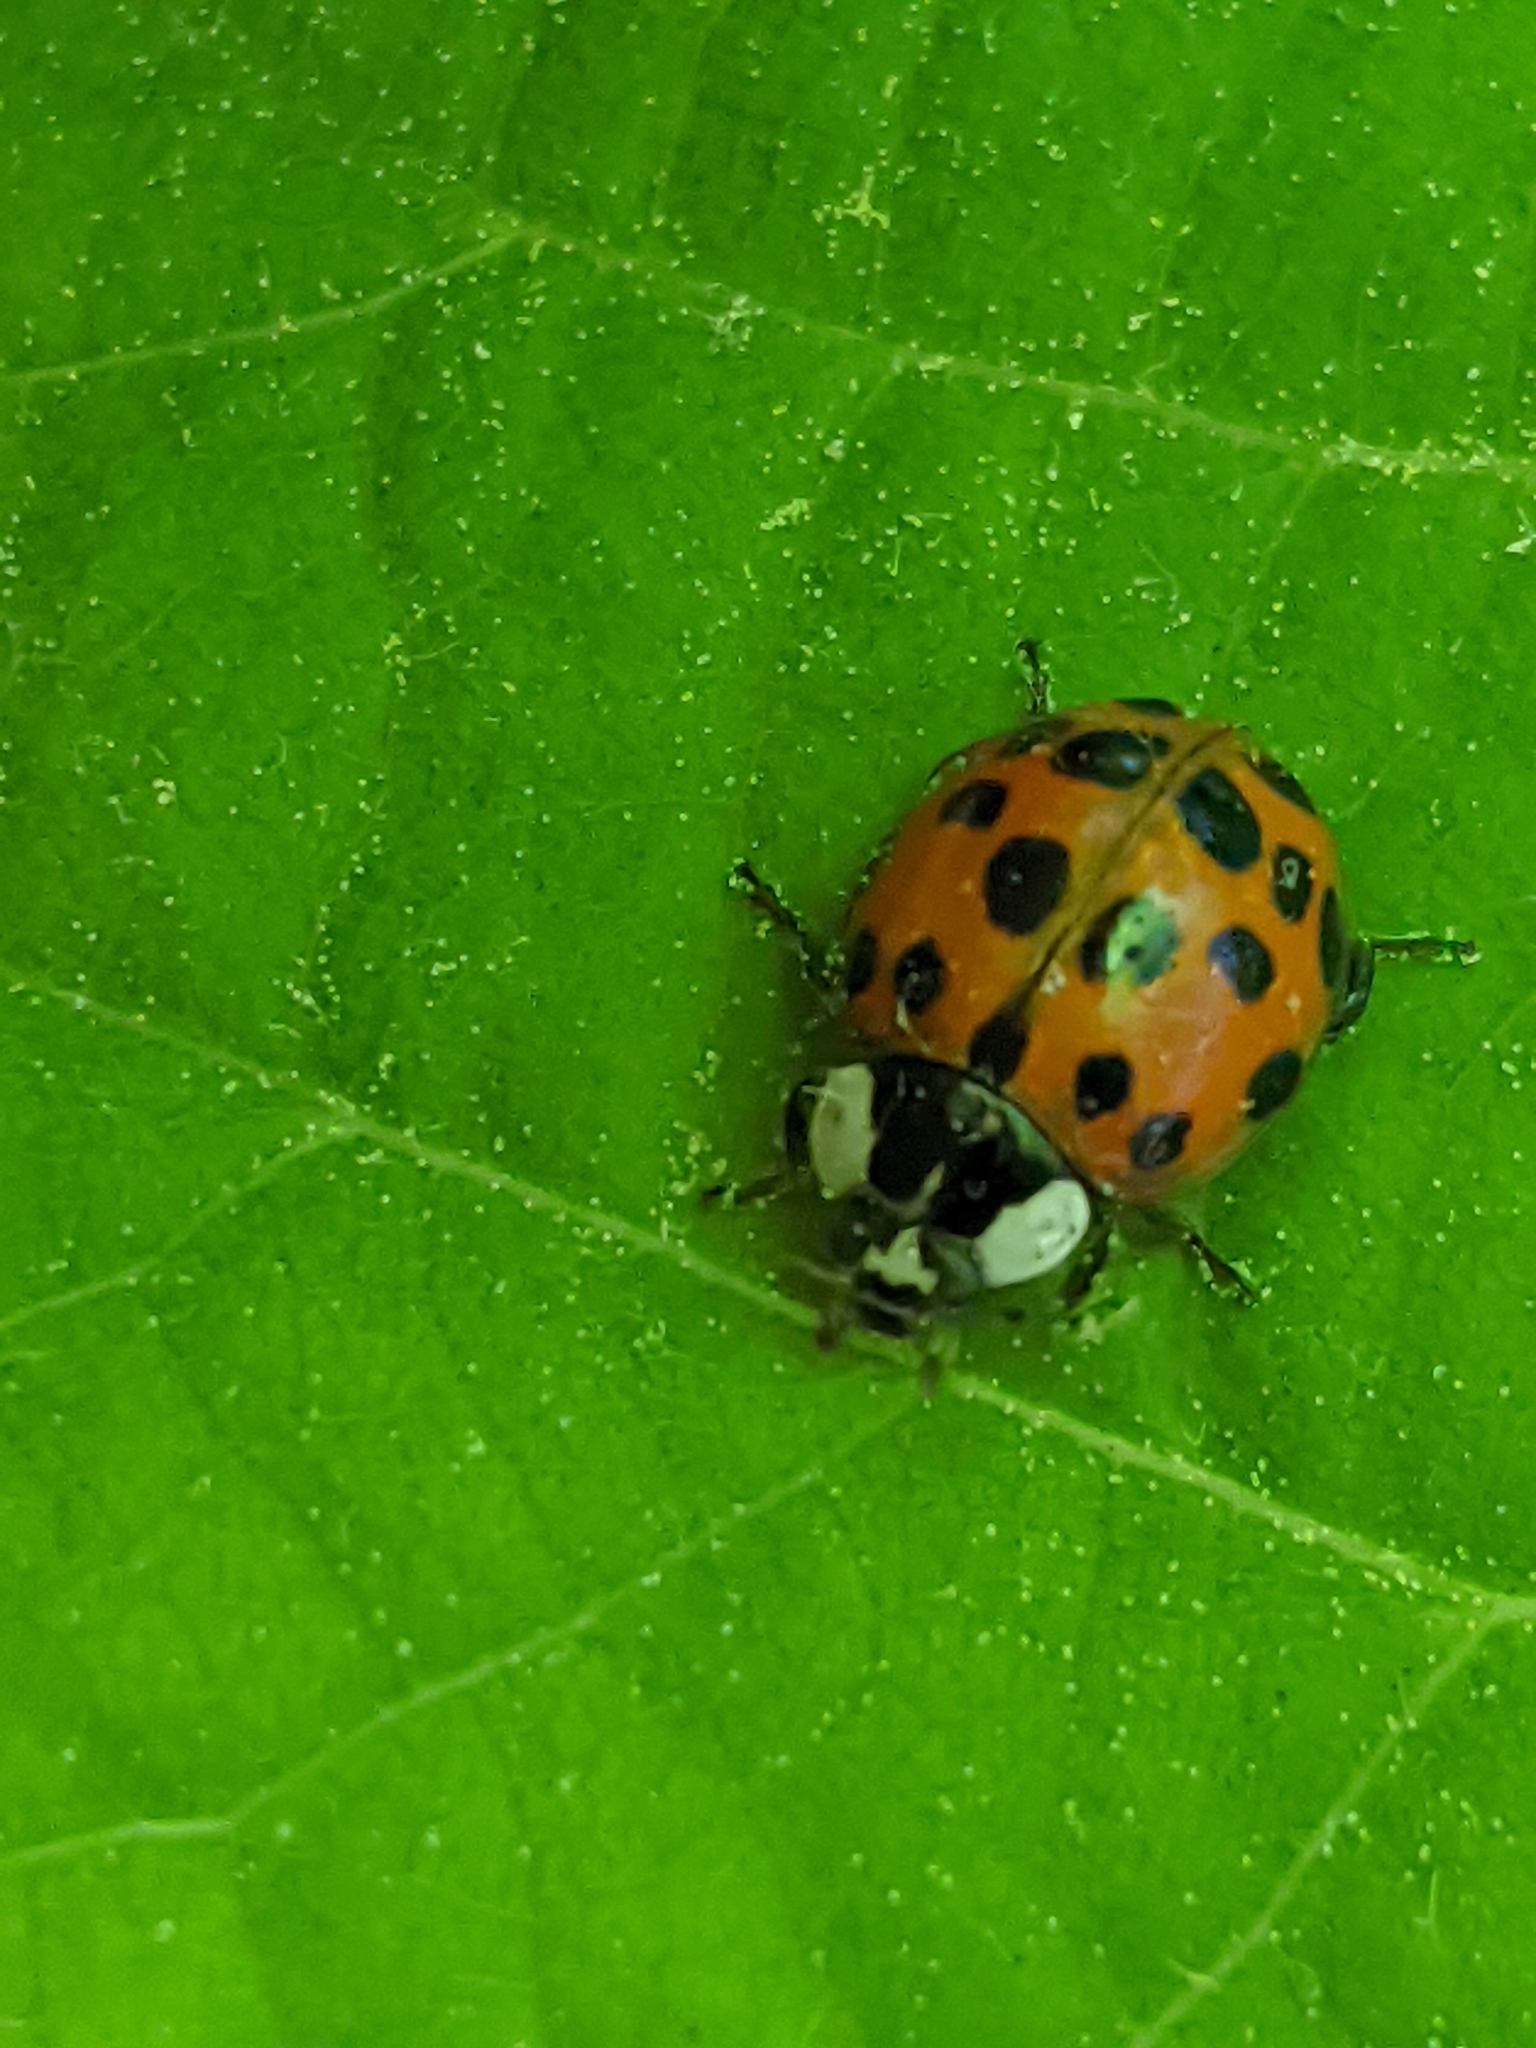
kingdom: Animalia
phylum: Arthropoda
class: Insecta
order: Coleoptera
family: Coccinellidae
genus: Harmonia
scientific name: Harmonia axyridis
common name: Harlequin ladybird
